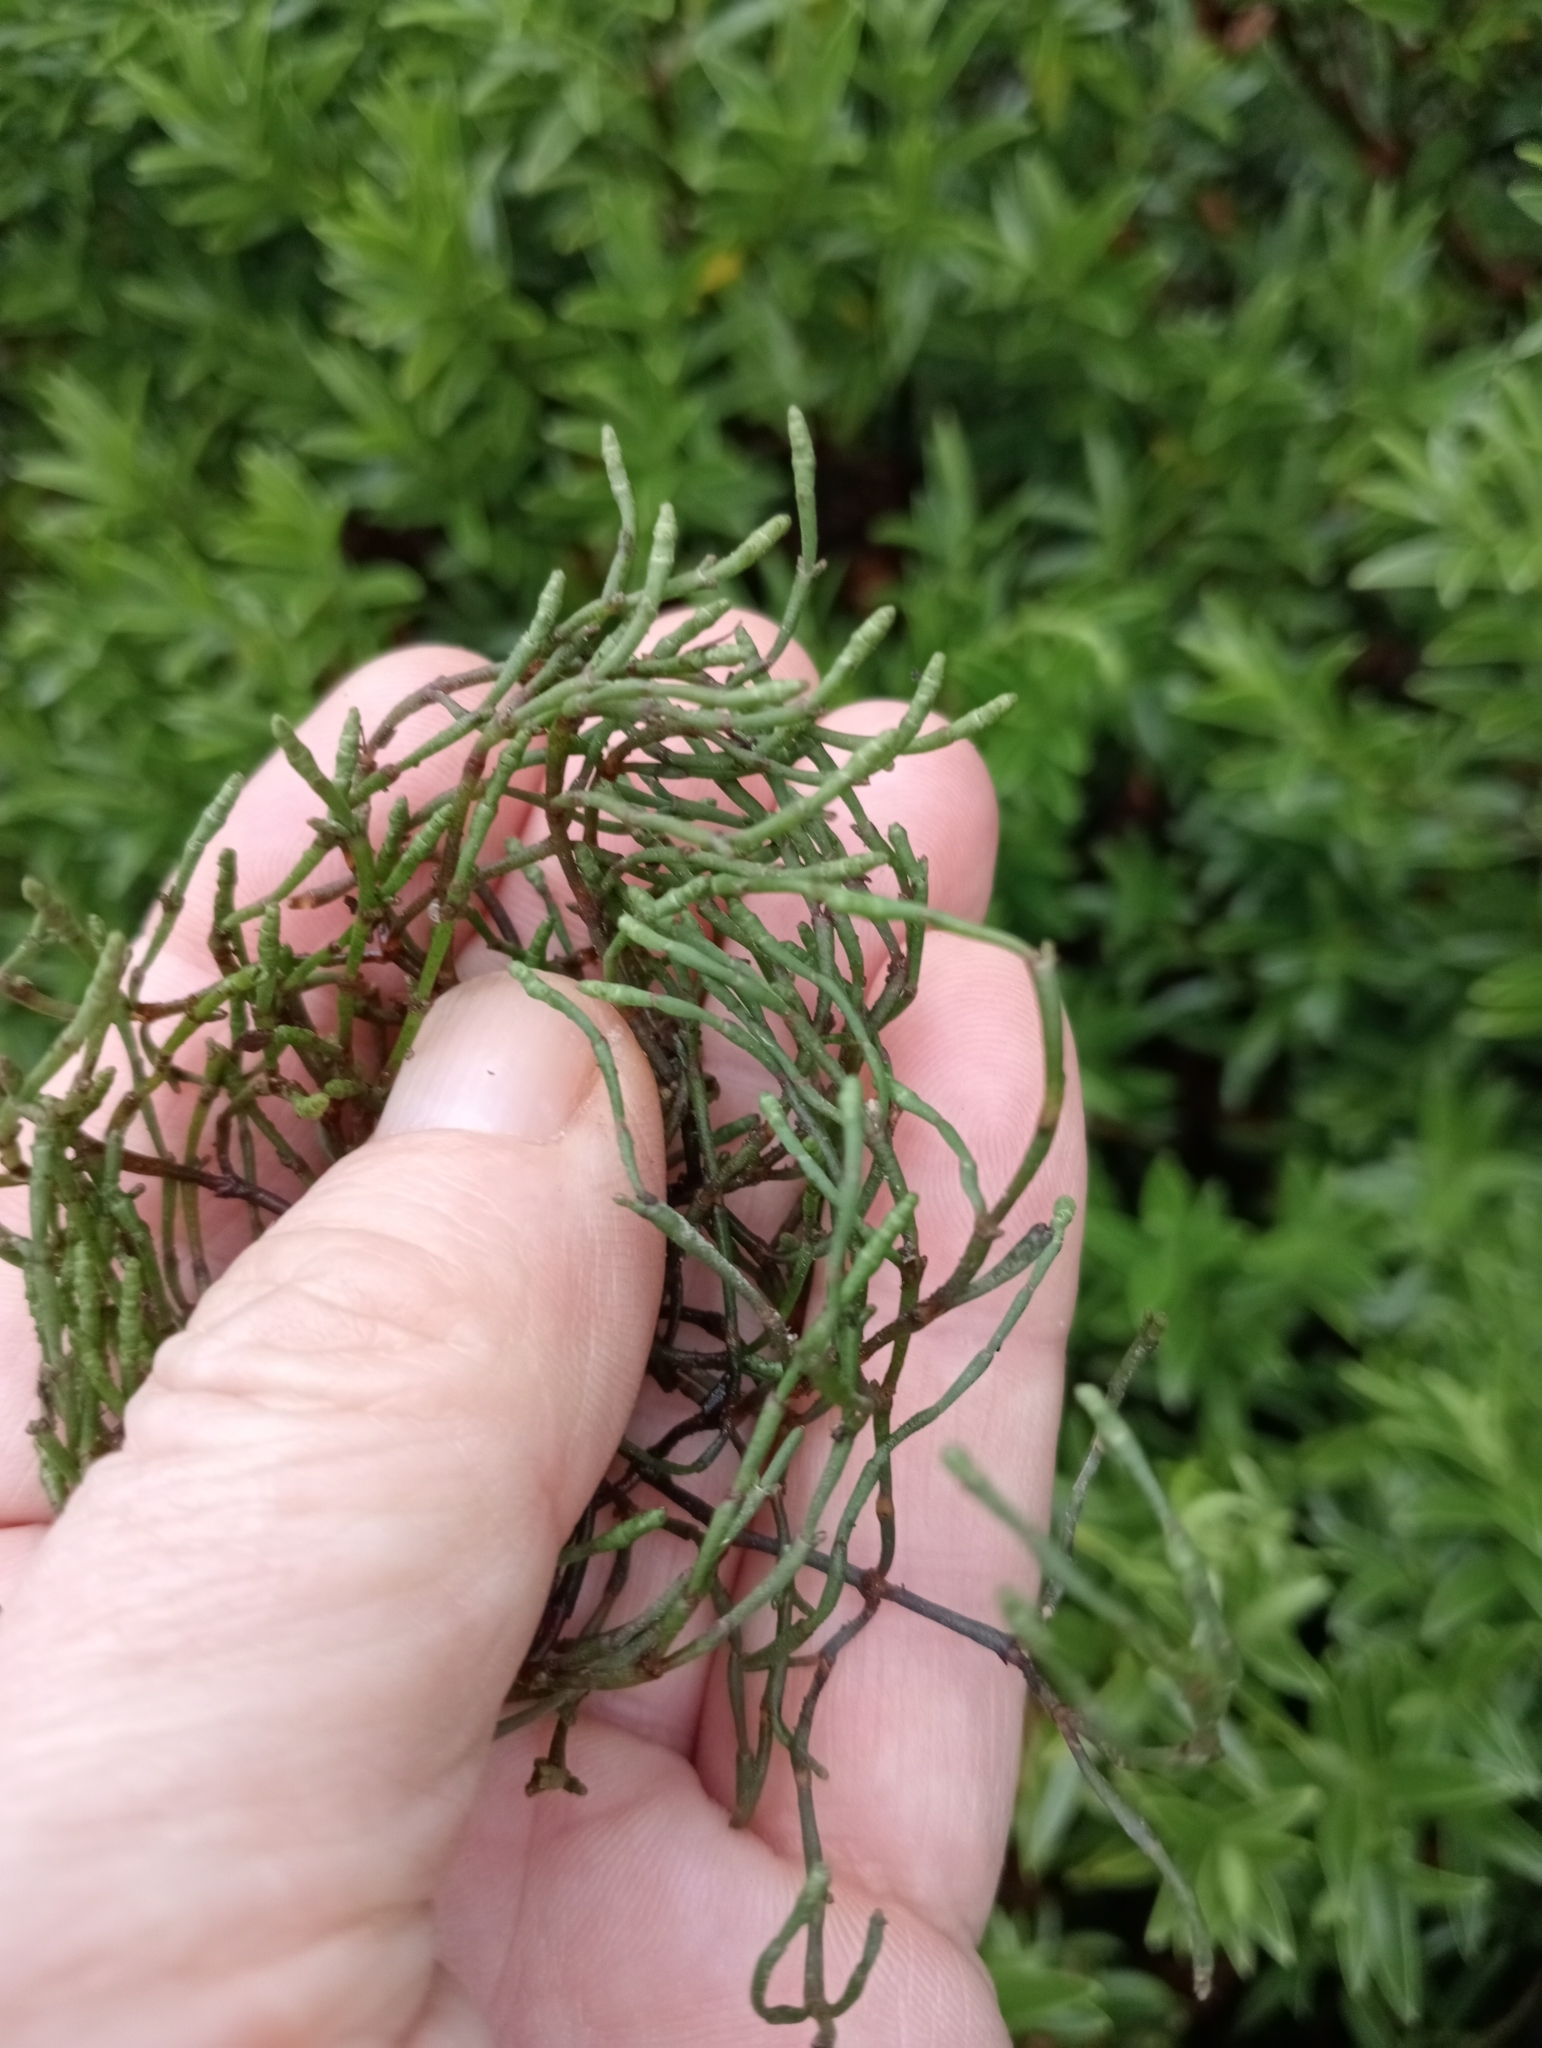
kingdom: Plantae
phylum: Tracheophyta
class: Magnoliopsida
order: Santalales
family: Viscaceae
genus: Korthalsella
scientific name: Korthalsella salicornioides
